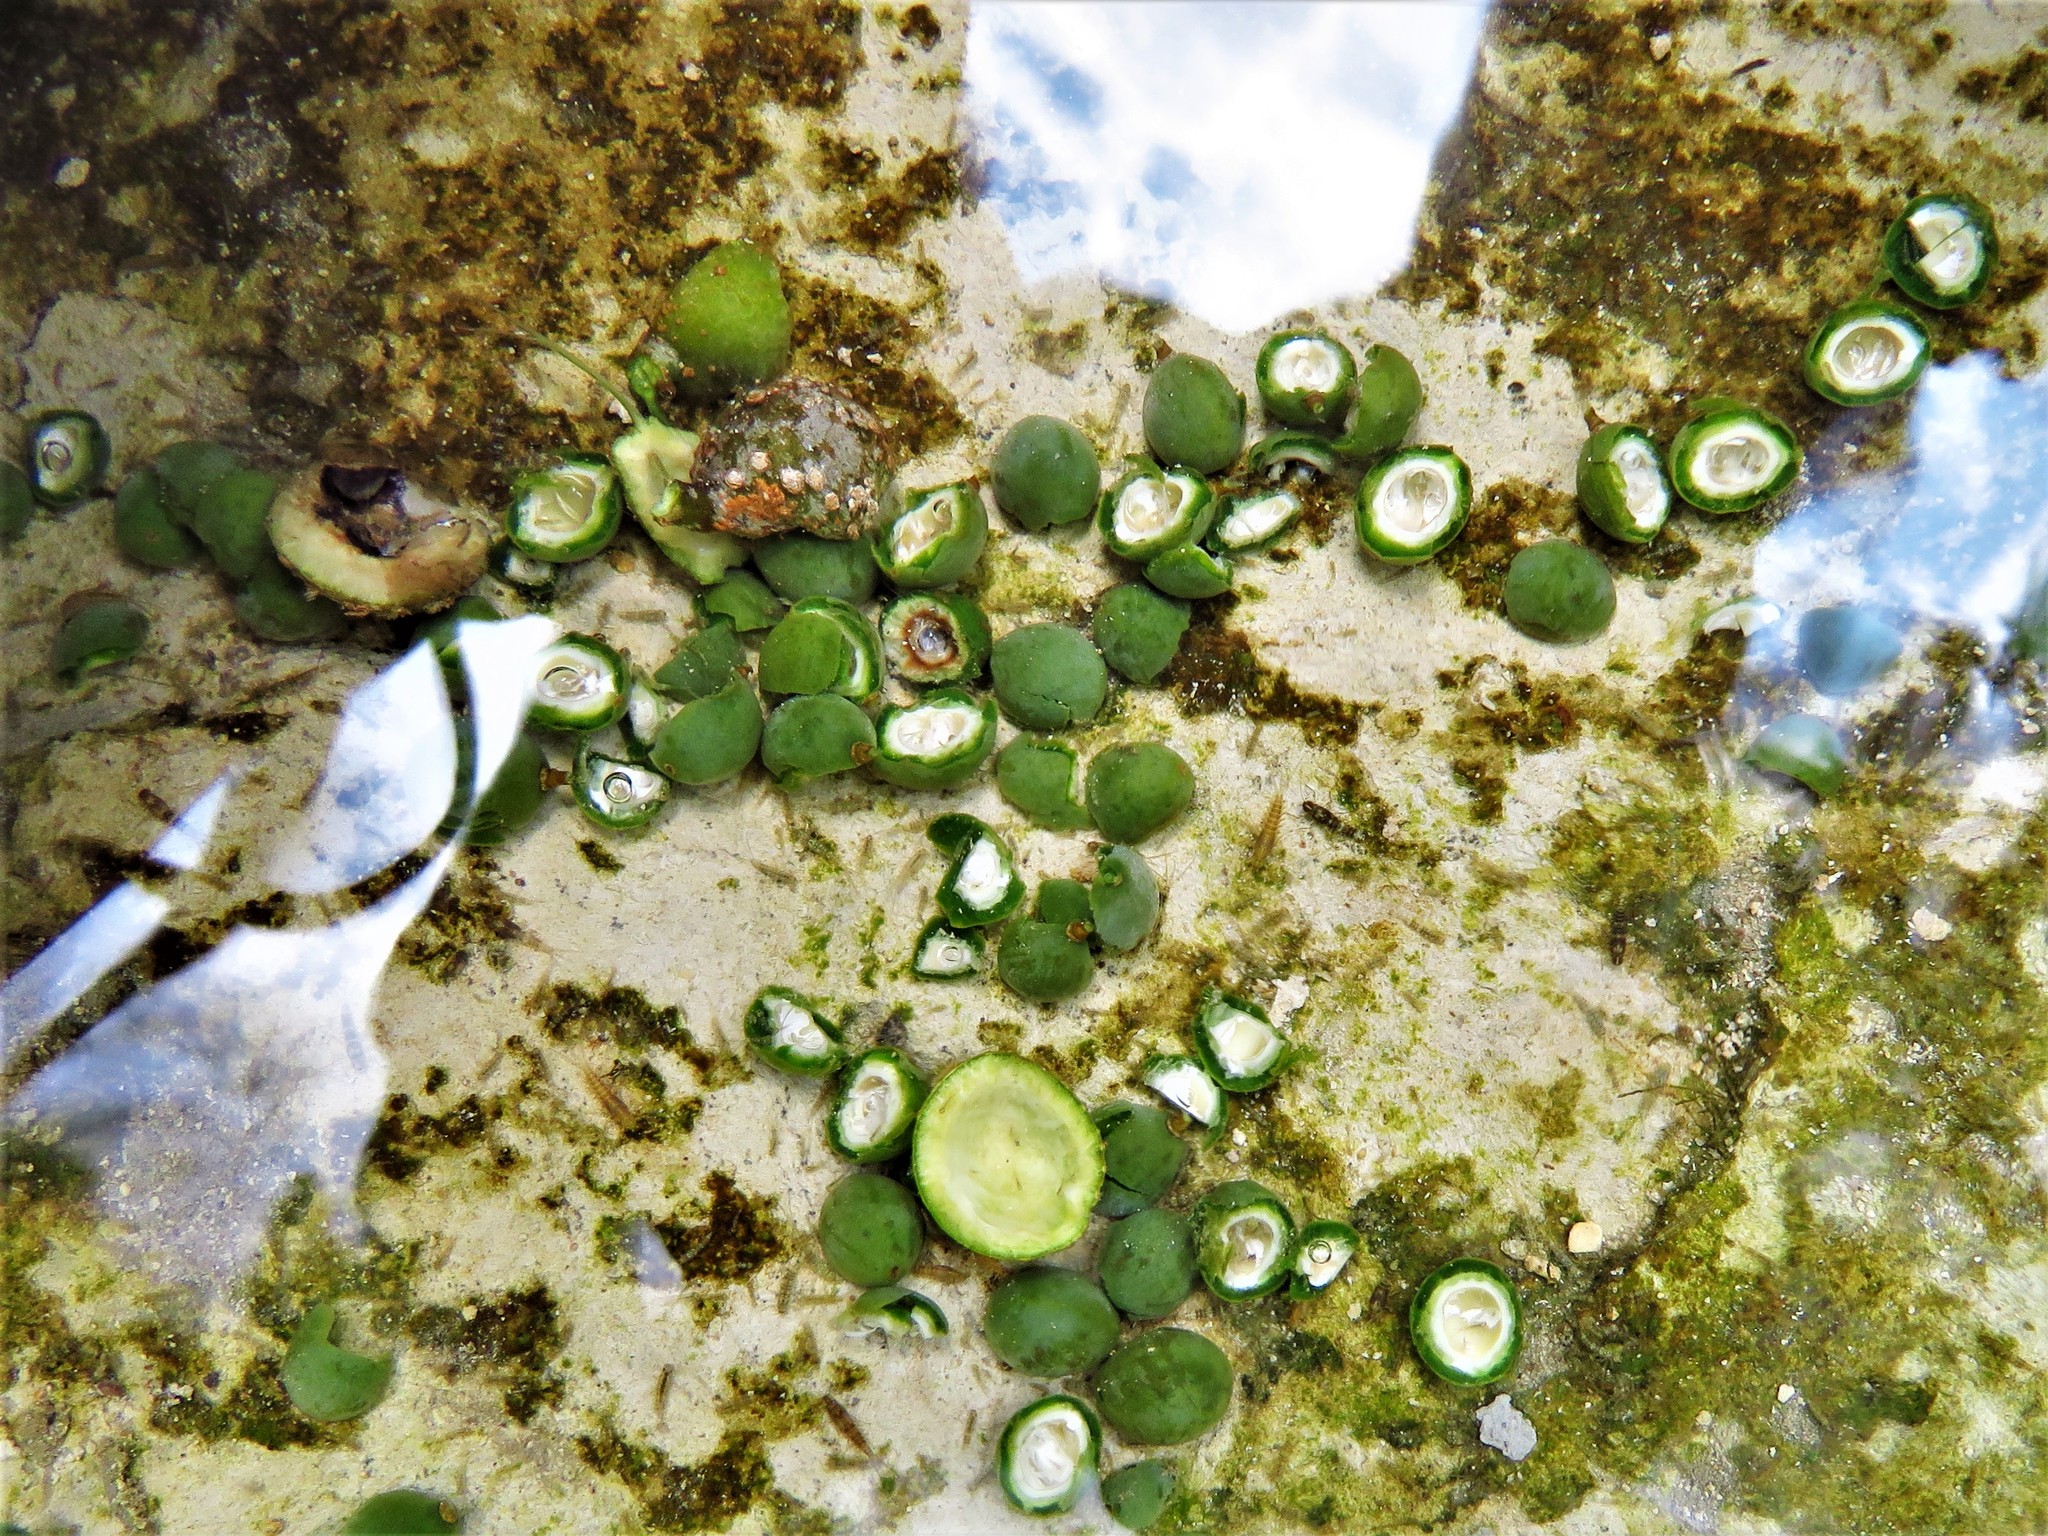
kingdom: Plantae
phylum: Tracheophyta
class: Magnoliopsida
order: Rosales
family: Cannabaceae
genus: Celtis
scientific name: Celtis laevigata
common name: Sugarberry
